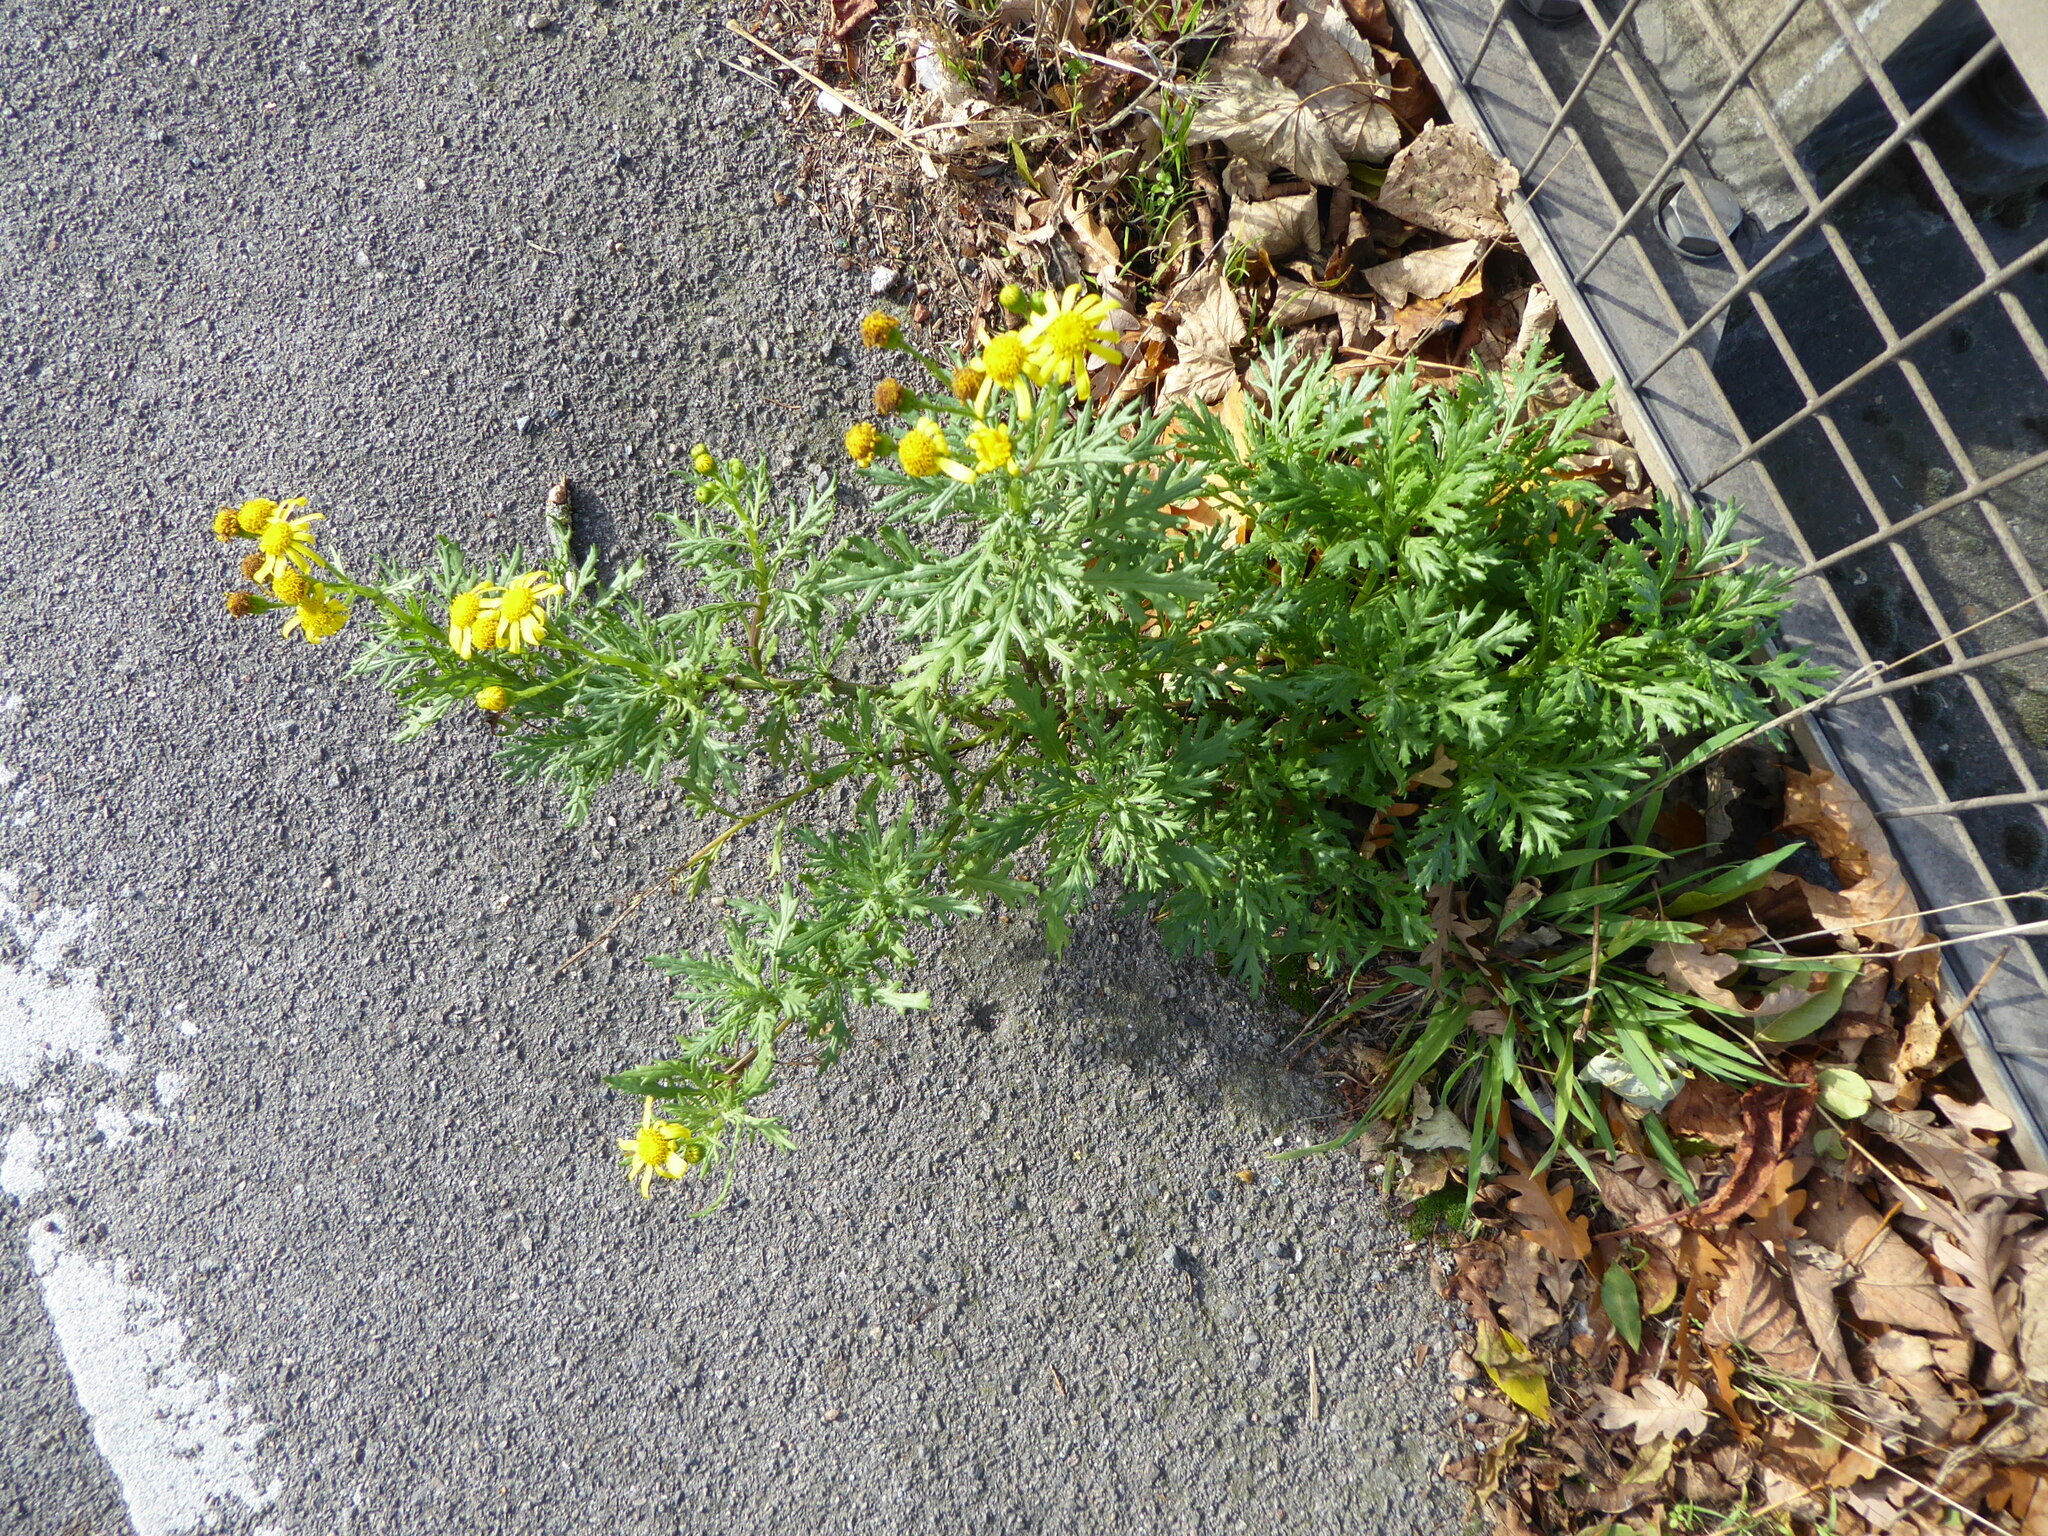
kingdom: Plantae
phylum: Tracheophyta
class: Magnoliopsida
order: Asterales
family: Asteraceae
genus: Senecio
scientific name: Senecio squalidus
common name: Oxford ragwort
